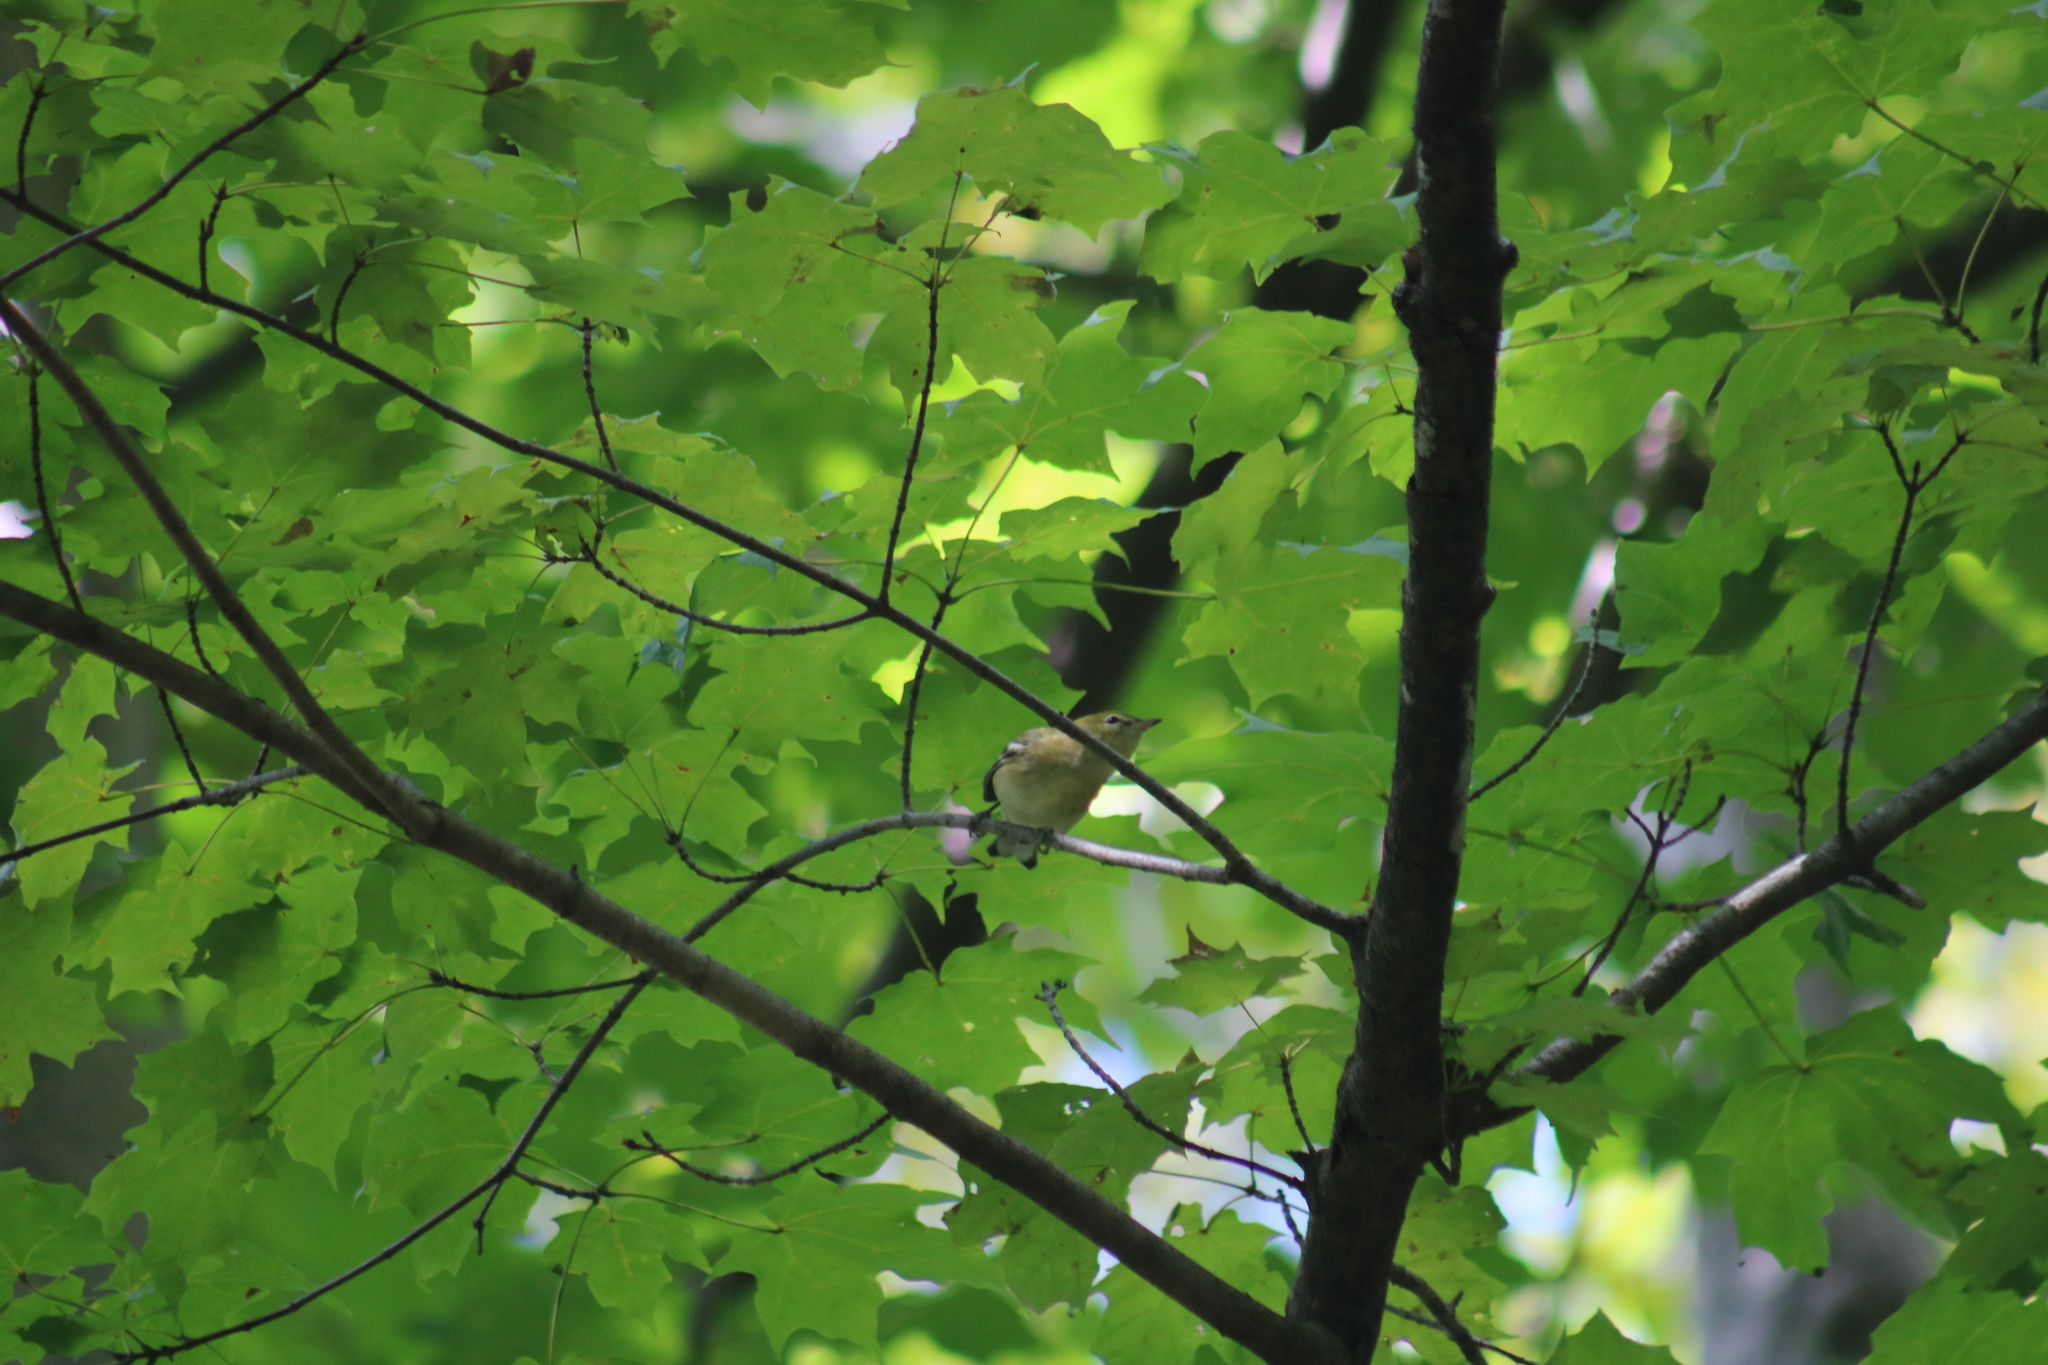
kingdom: Animalia
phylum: Chordata
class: Aves
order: Passeriformes
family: Parulidae
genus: Setophaga
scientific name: Setophaga castanea
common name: Bay-breasted warbler
